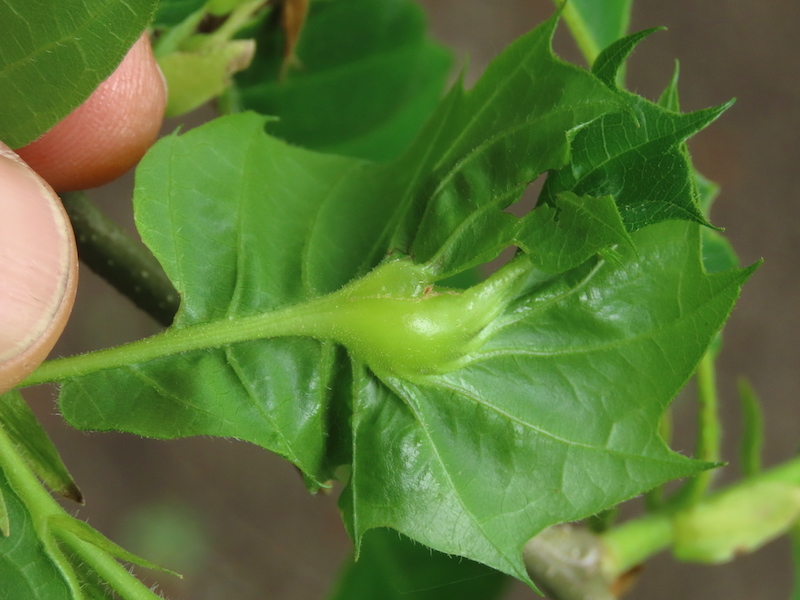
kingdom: Animalia
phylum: Arthropoda
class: Insecta
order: Hymenoptera
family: Cynipidae
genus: Dryocosmus
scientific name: Dryocosmus kuriphilus
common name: Asian chestnut gall wasp
